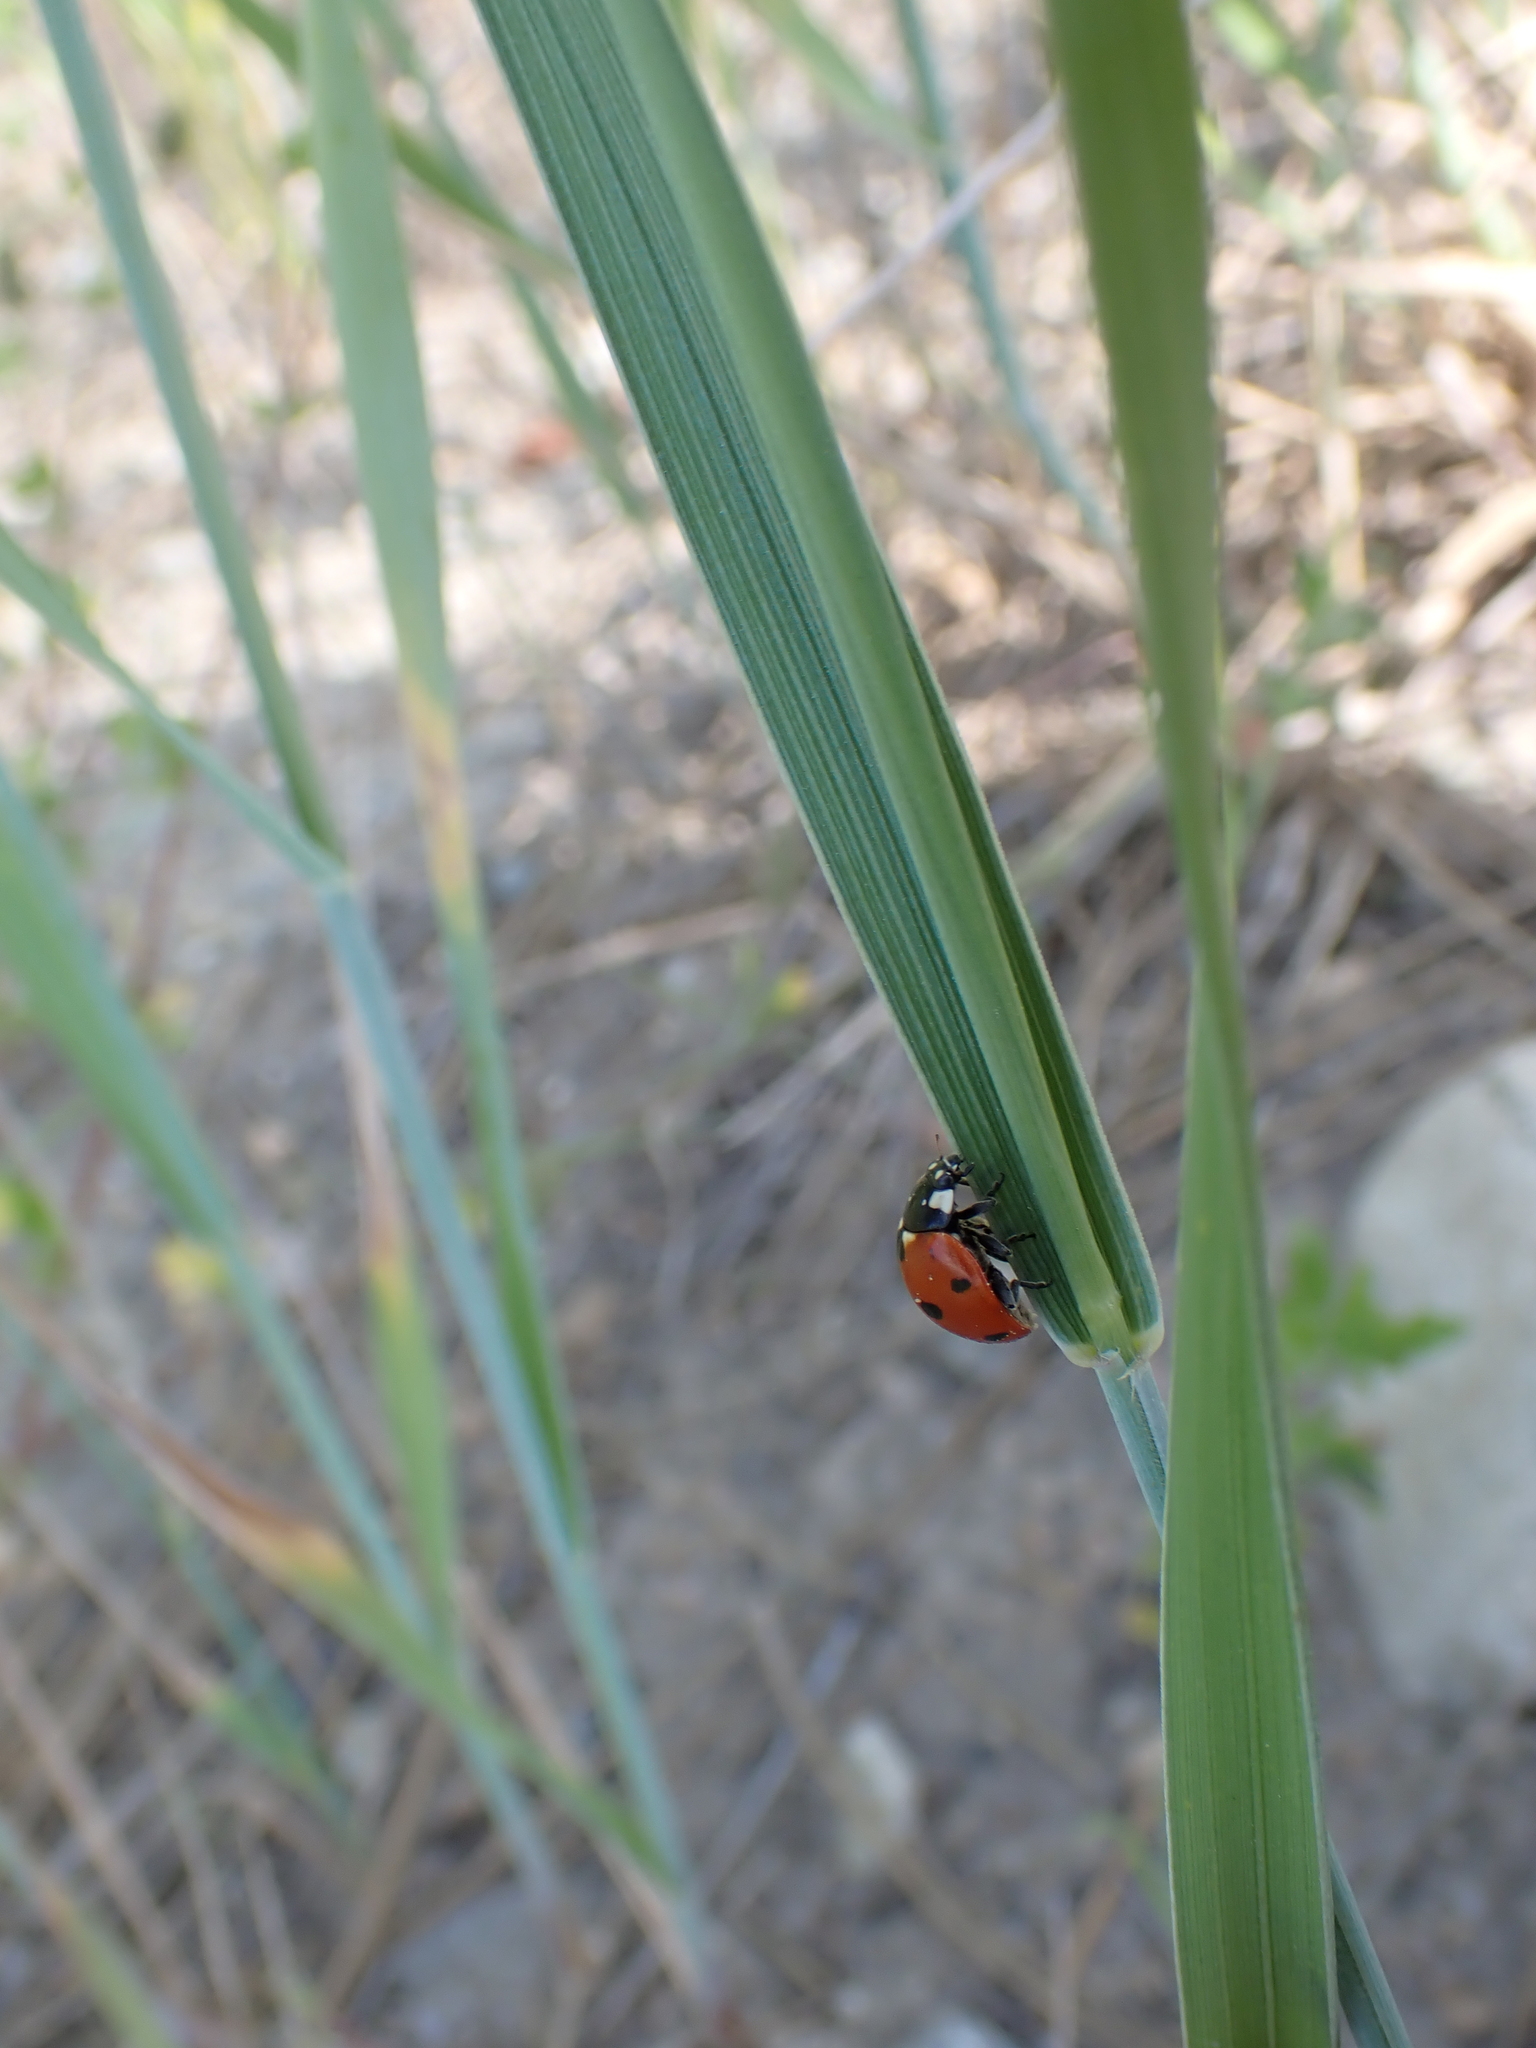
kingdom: Animalia
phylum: Arthropoda
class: Insecta
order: Coleoptera
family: Coccinellidae
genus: Coccinella
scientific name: Coccinella septempunctata
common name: Sevenspotted lady beetle
